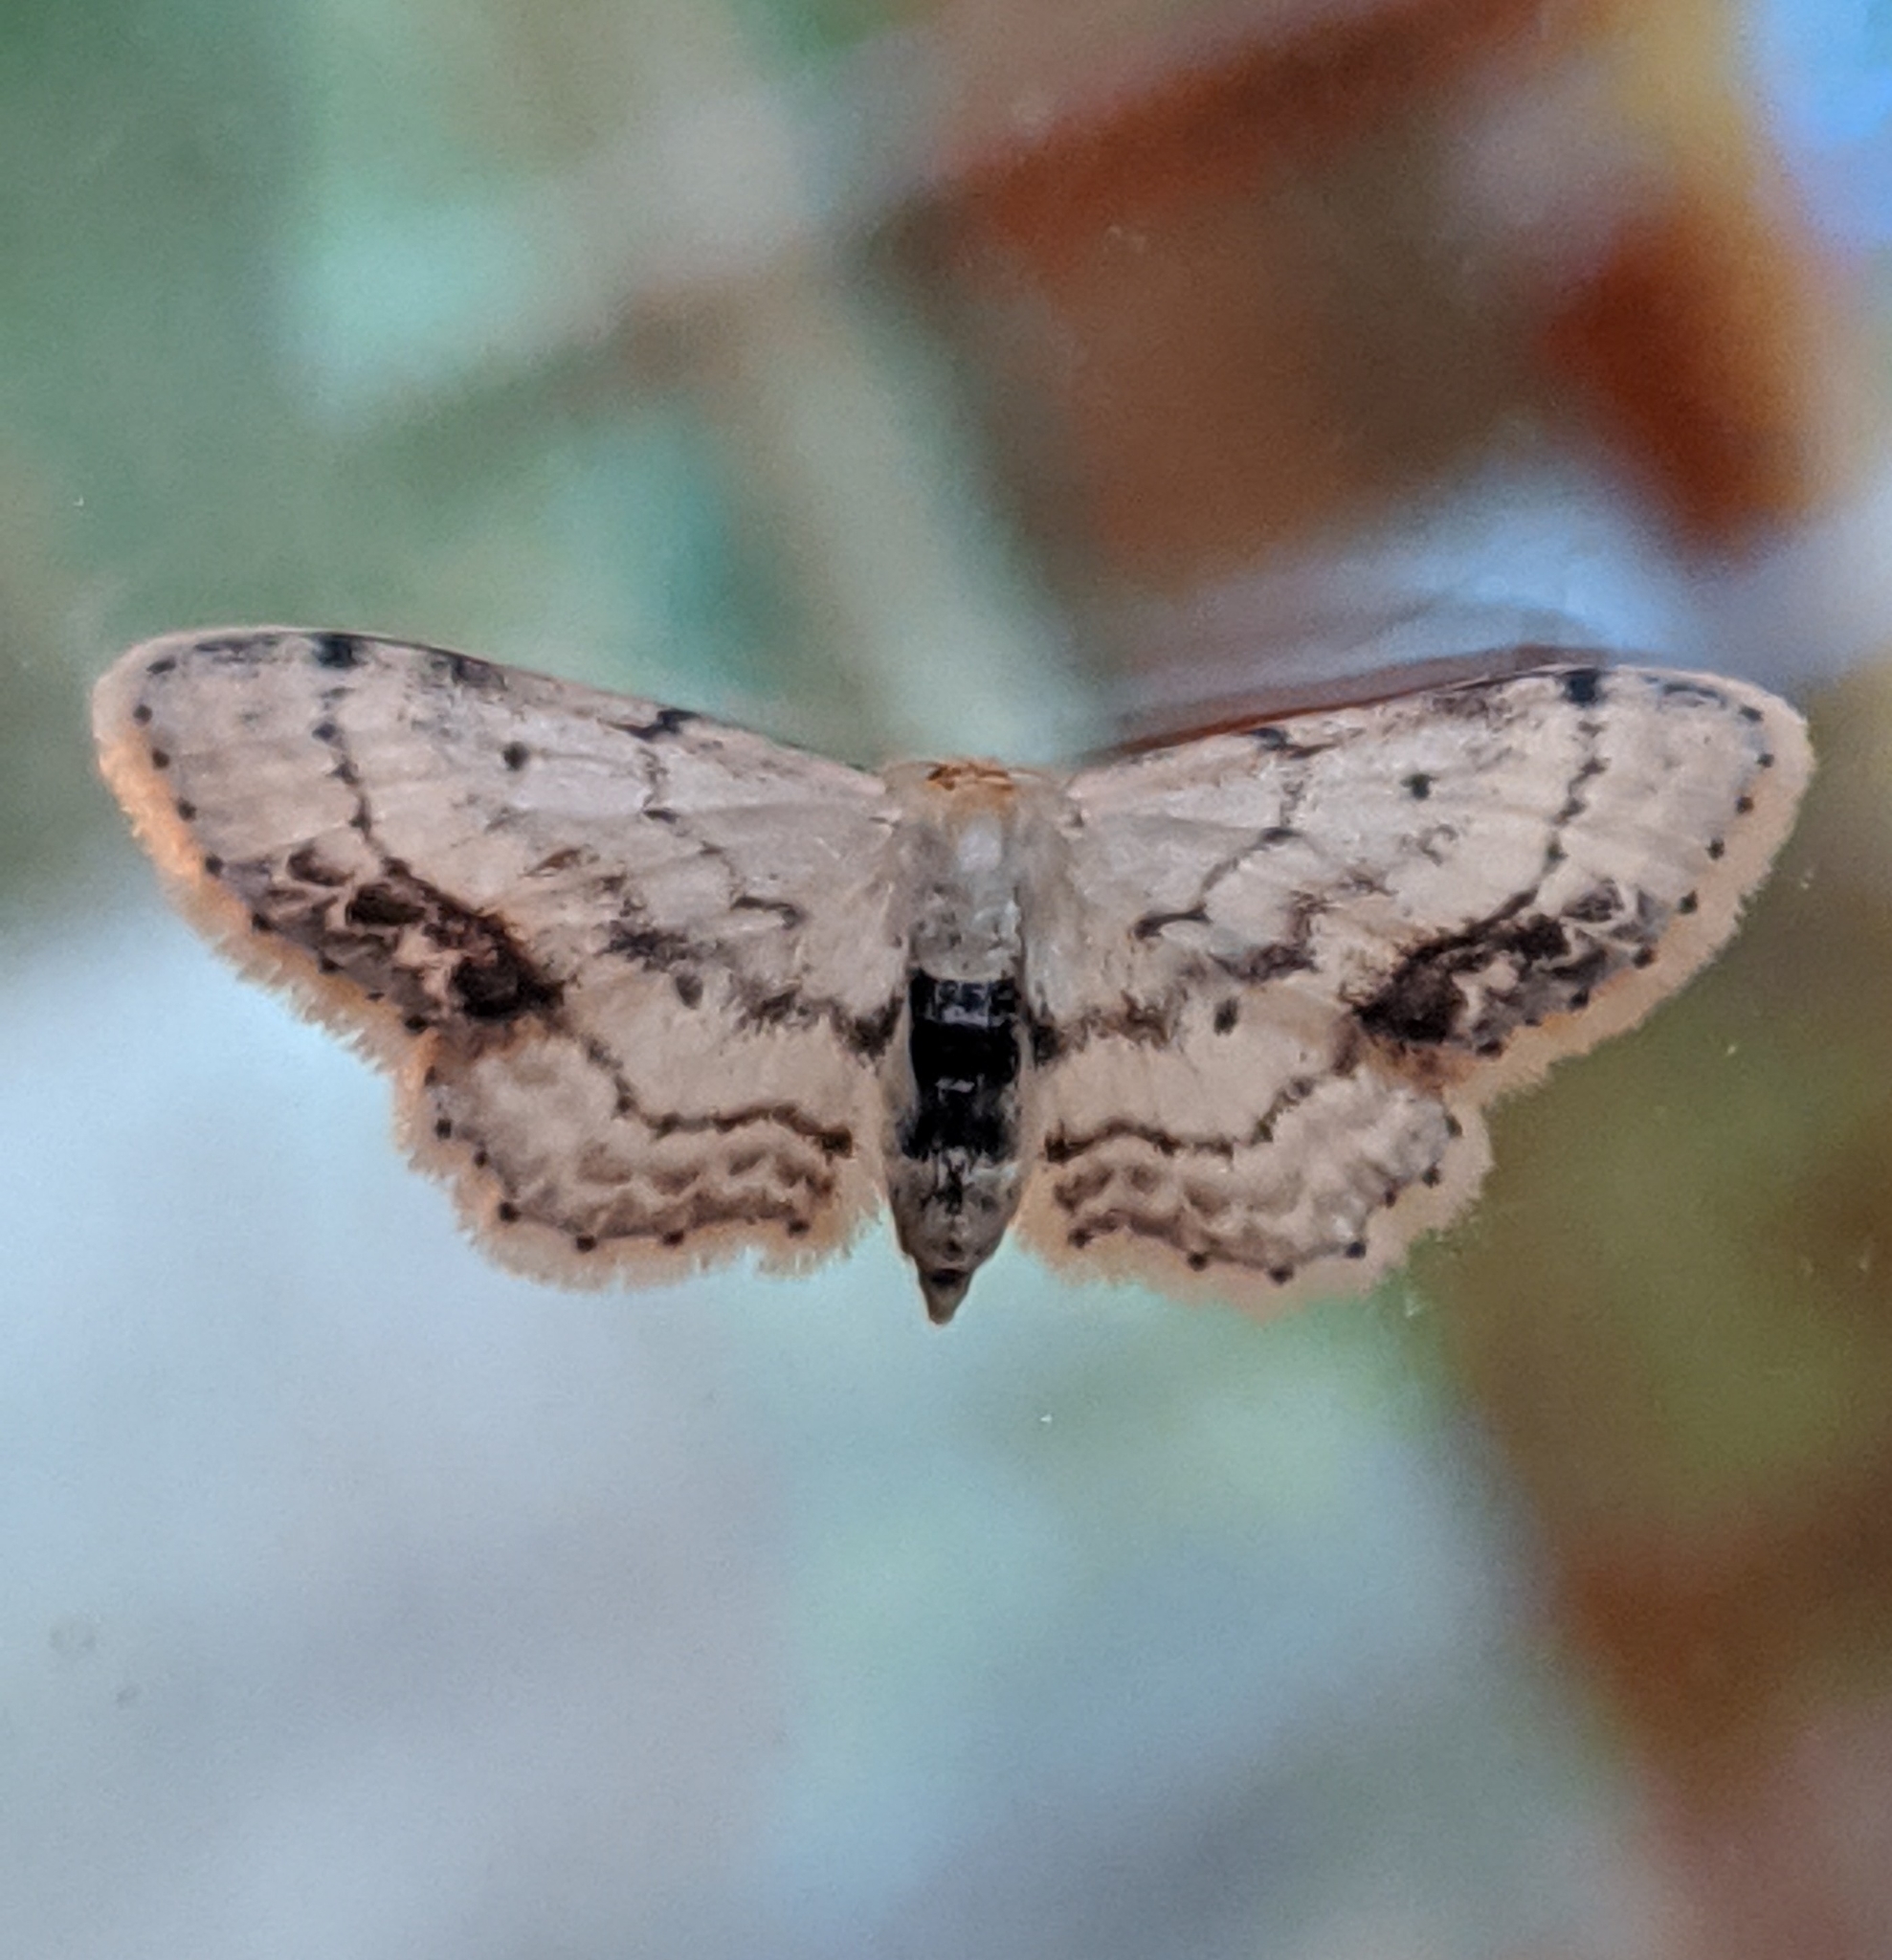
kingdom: Animalia
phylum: Arthropoda
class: Insecta
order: Lepidoptera
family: Geometridae
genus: Idaea
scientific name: Idaea dimidiata
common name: Single-dotted wave
